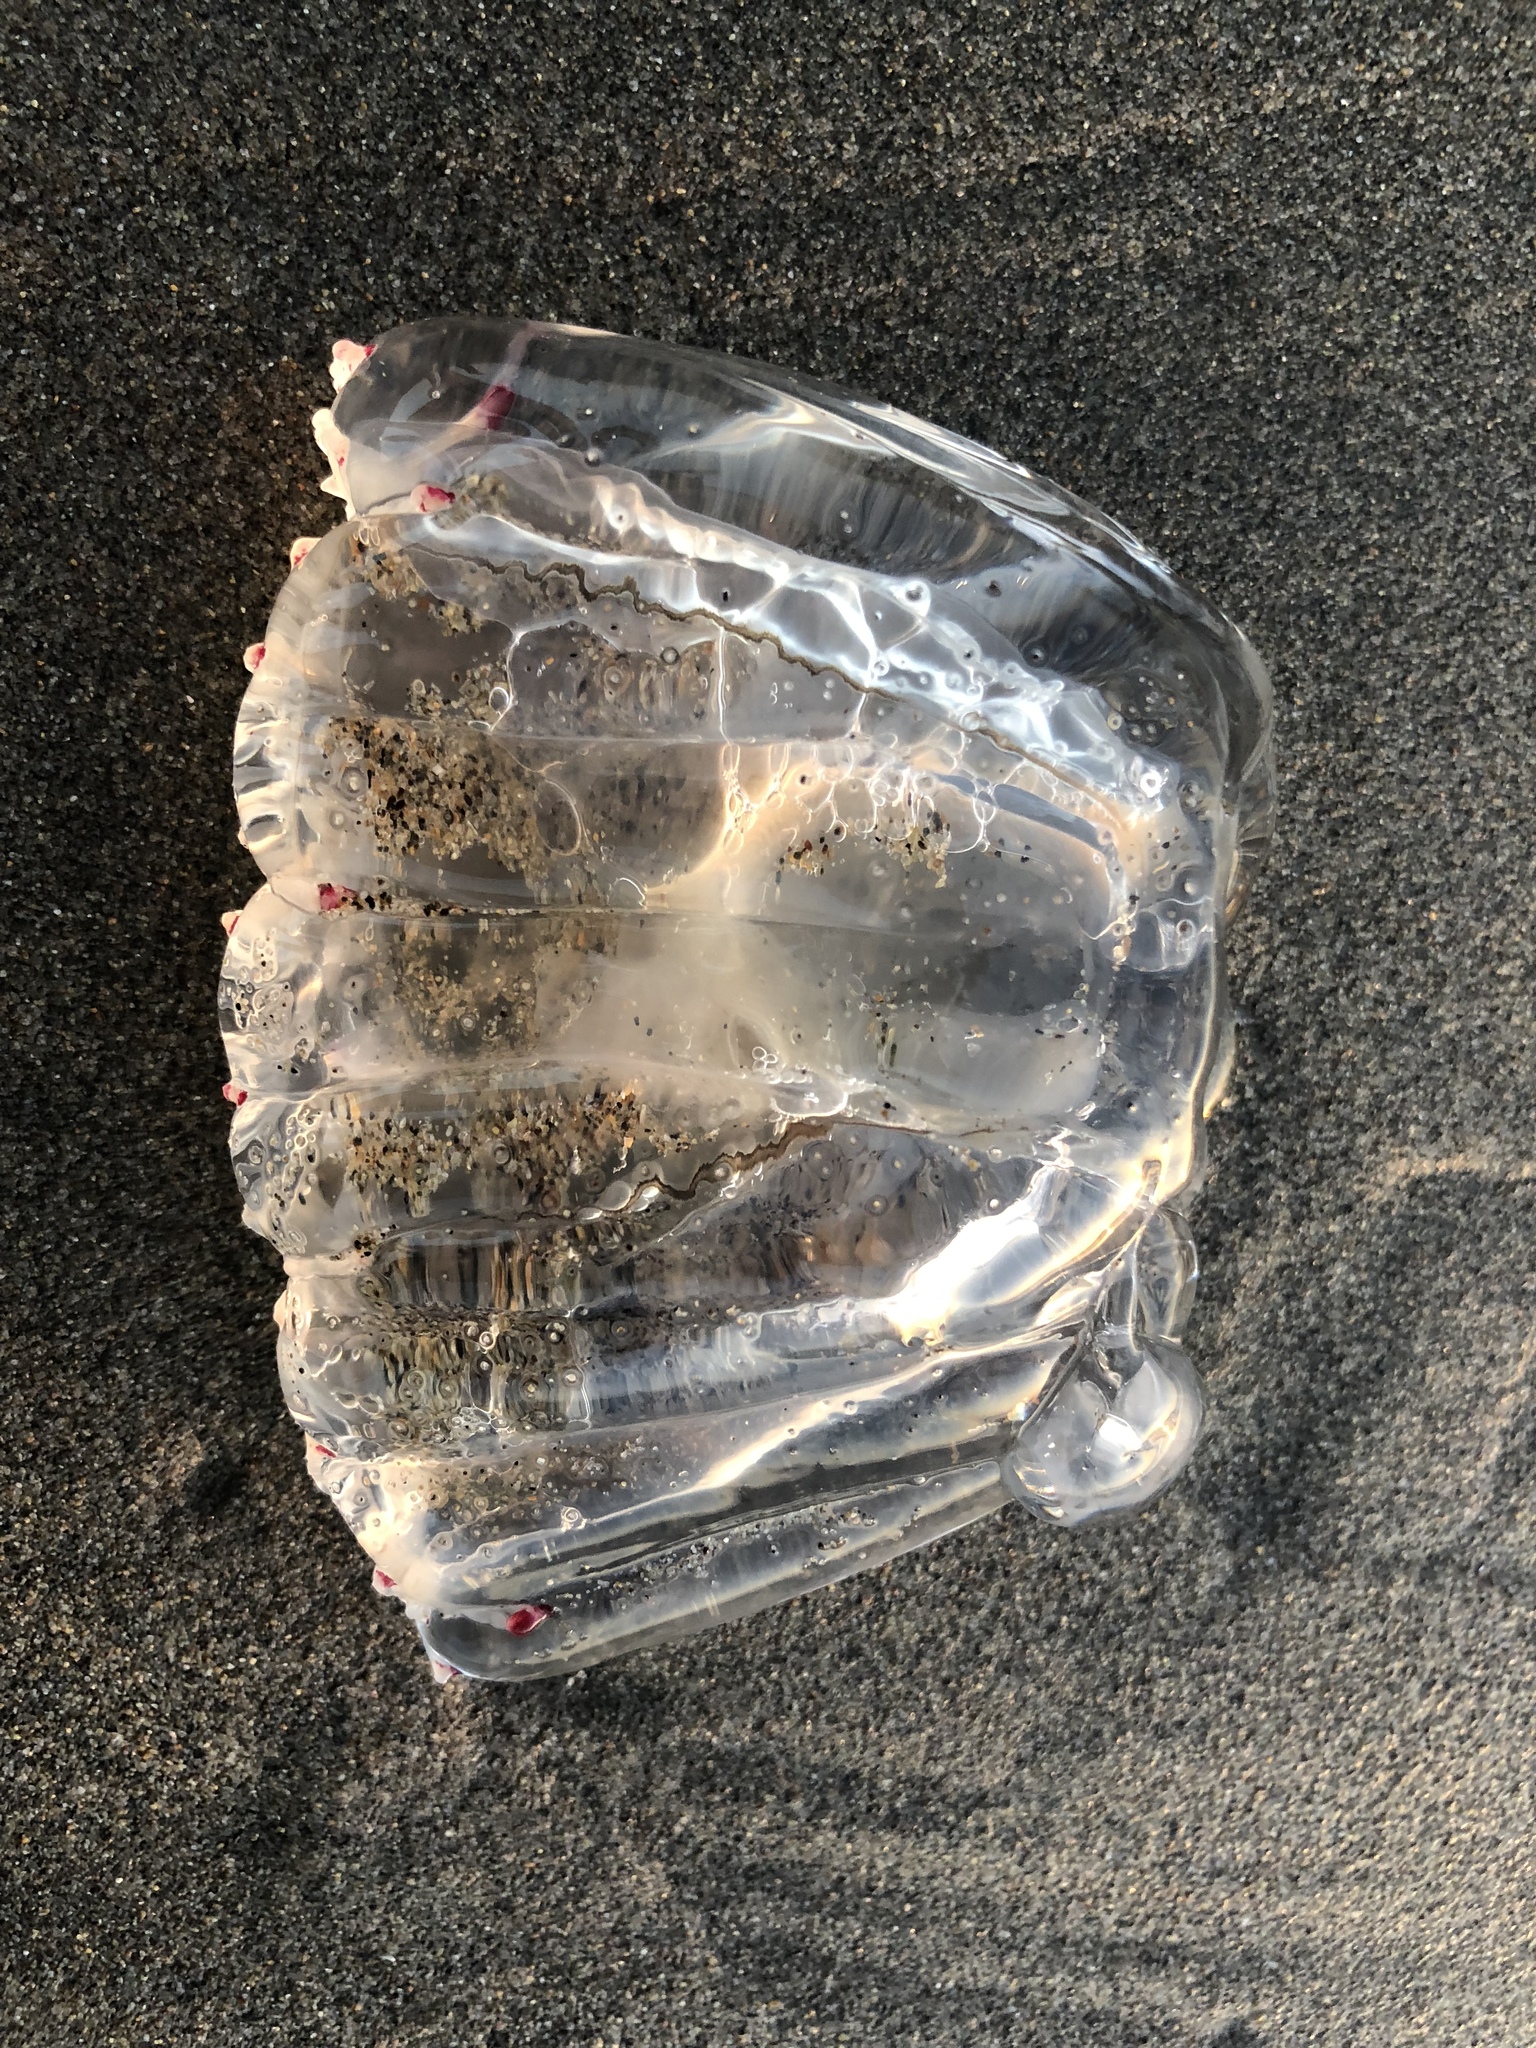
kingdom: Animalia
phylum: Cnidaria
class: Hydrozoa
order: Anthoathecata
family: Corynidae
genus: Scrippsia
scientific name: Scrippsia pacifica
